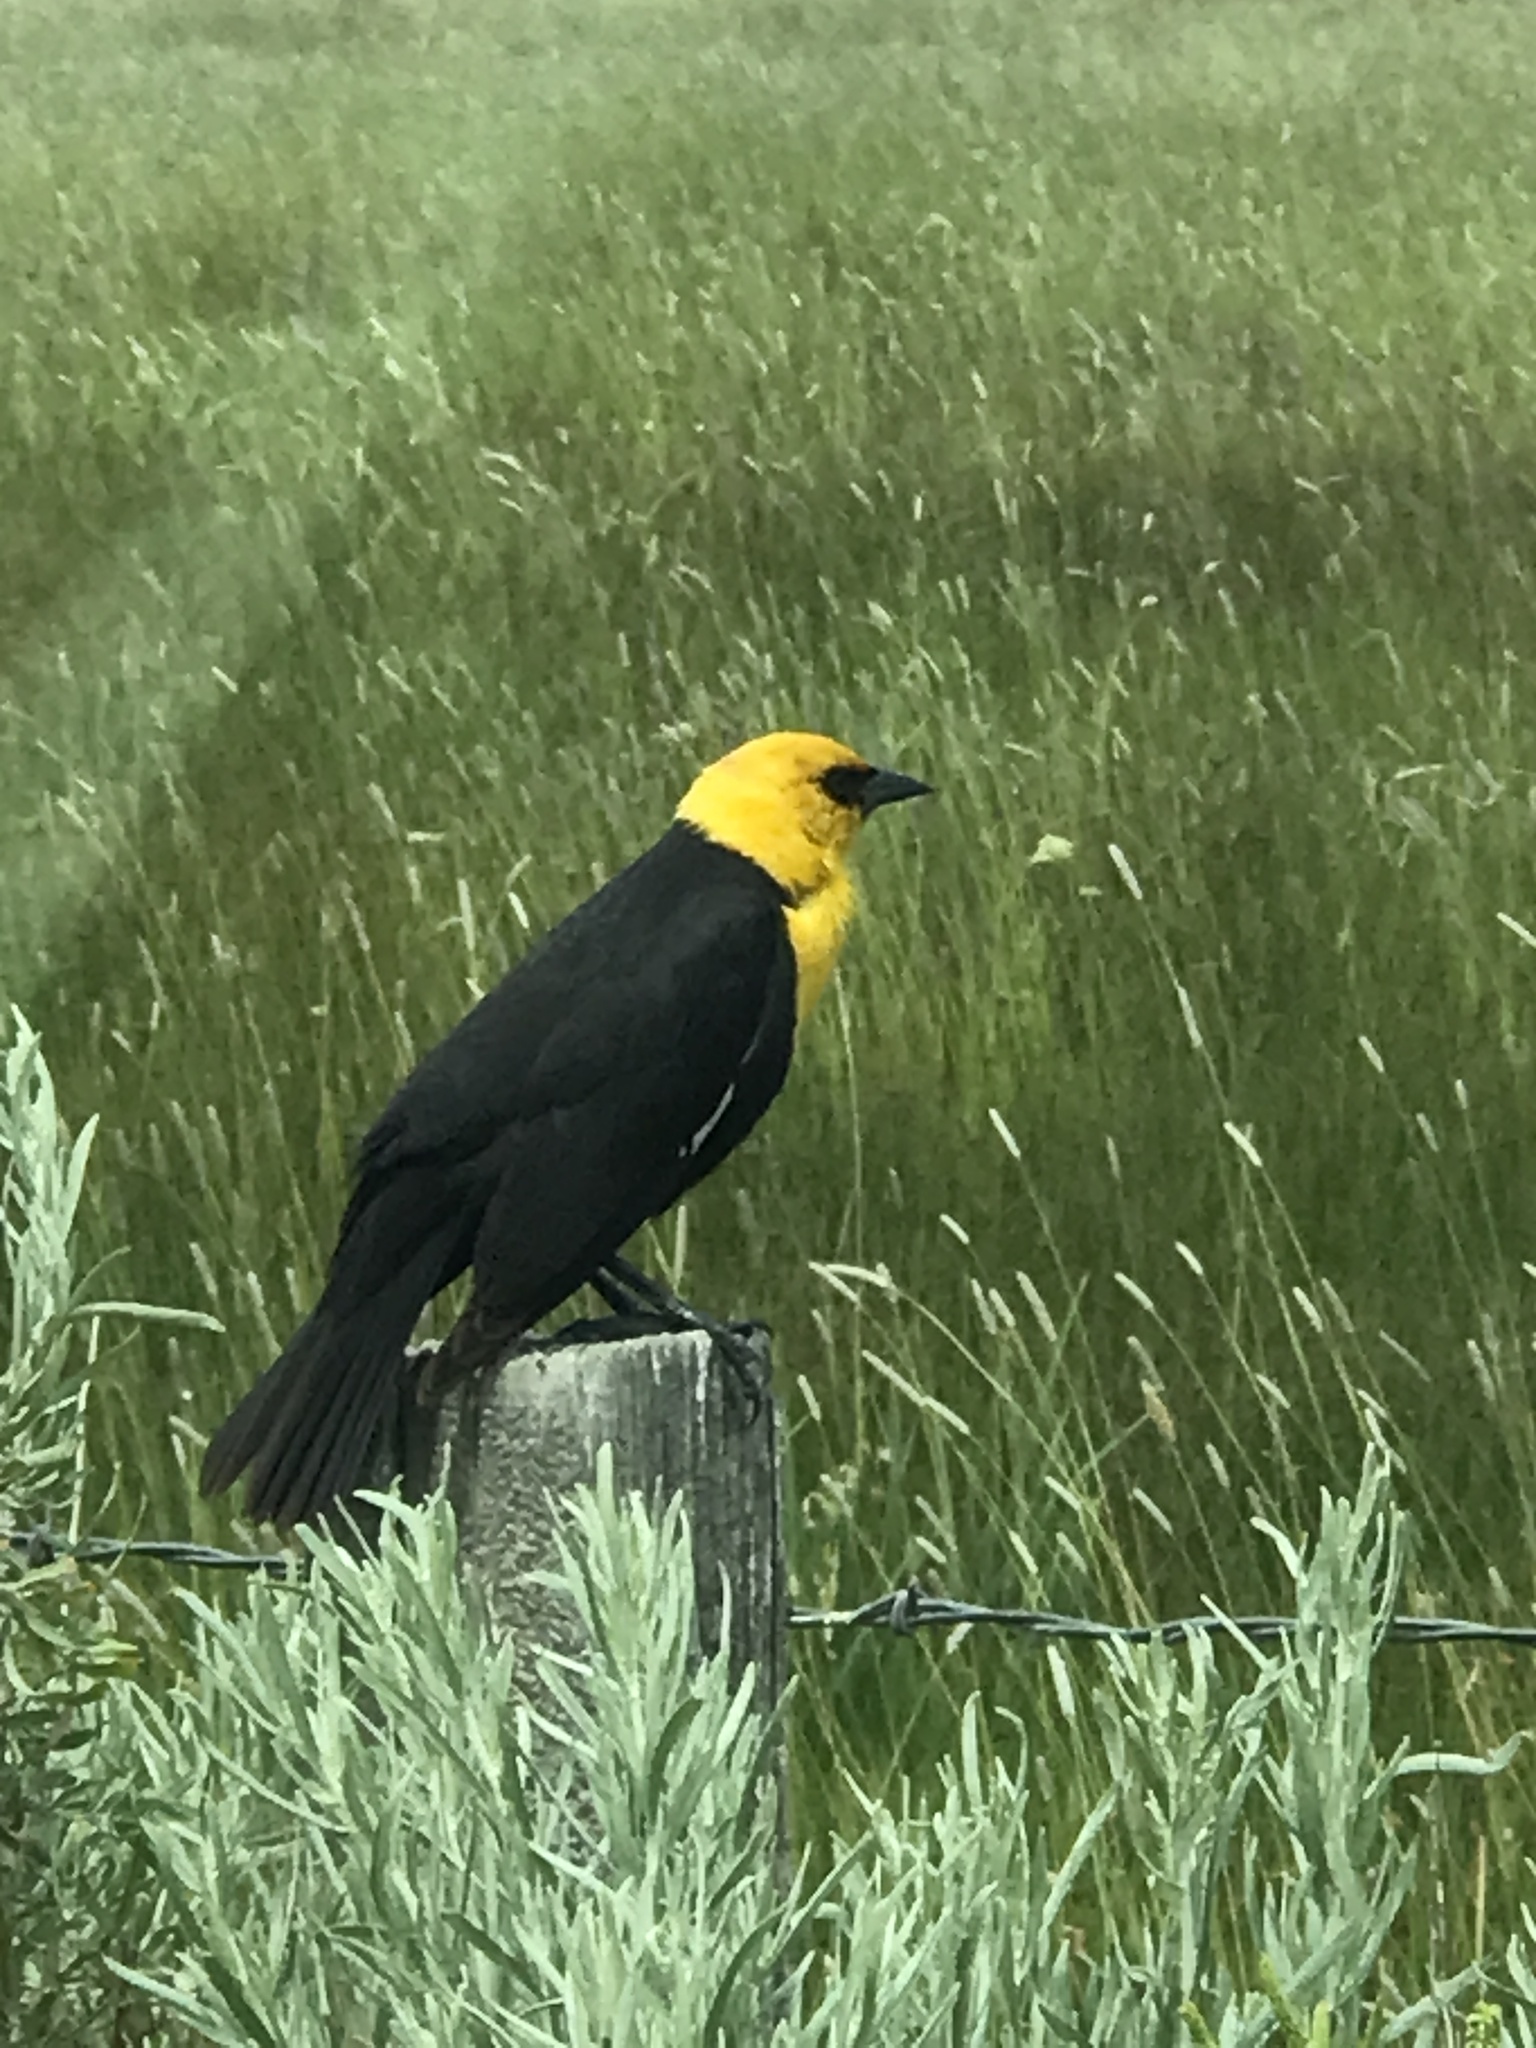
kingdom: Animalia
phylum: Chordata
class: Aves
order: Passeriformes
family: Icteridae
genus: Xanthocephalus
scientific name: Xanthocephalus xanthocephalus
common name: Yellow-headed blackbird
